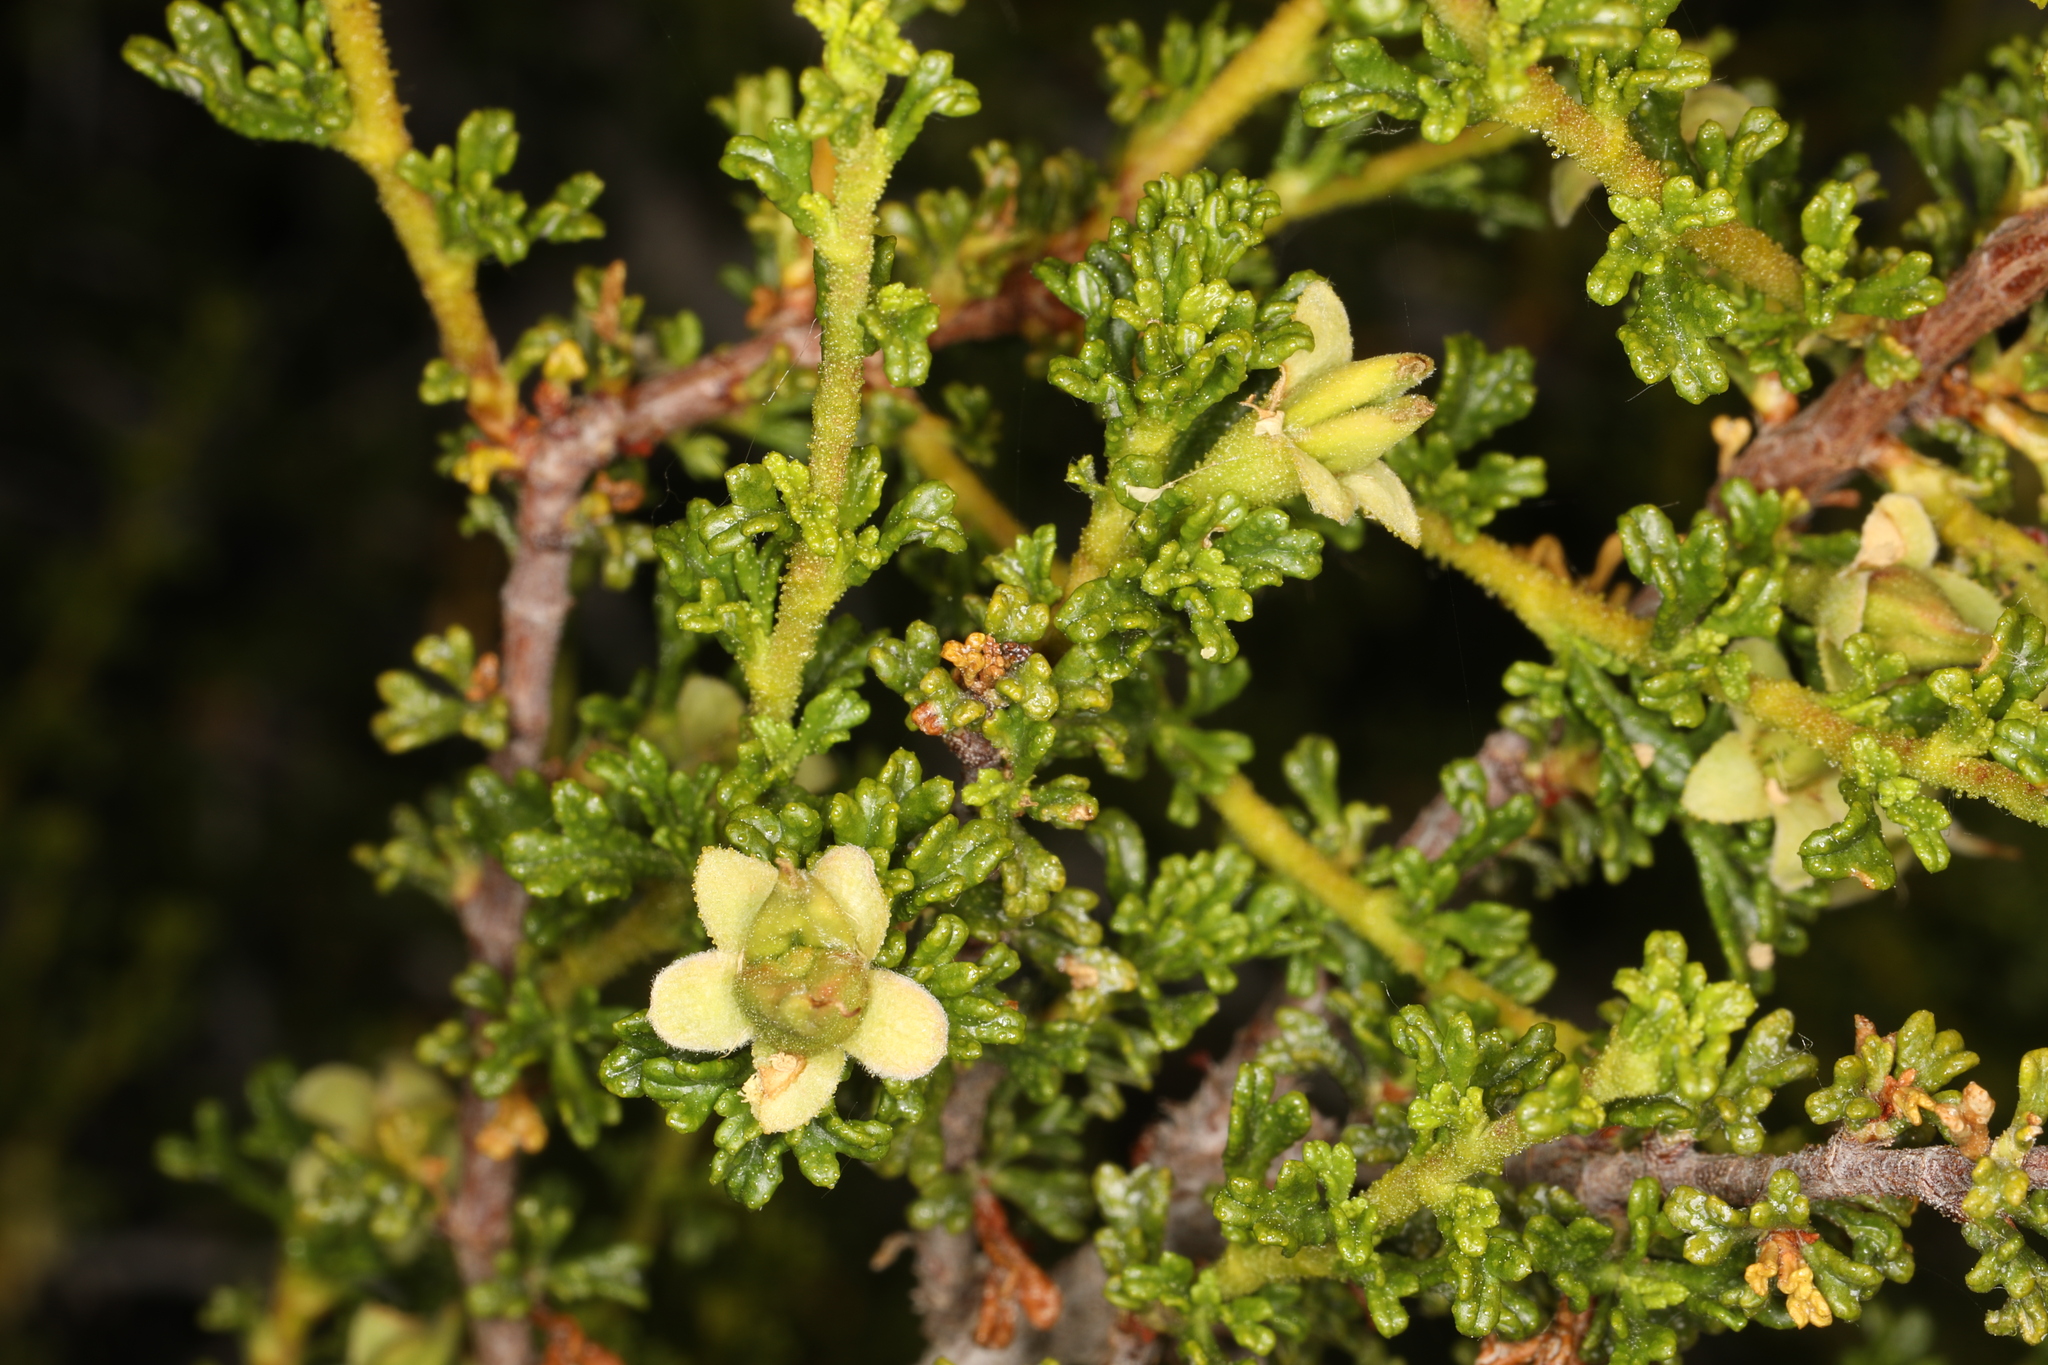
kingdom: Plantae
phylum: Tracheophyta
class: Magnoliopsida
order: Rosales
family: Rosaceae
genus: Purshia
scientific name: Purshia glandulosa
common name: Desert bitterbrush
